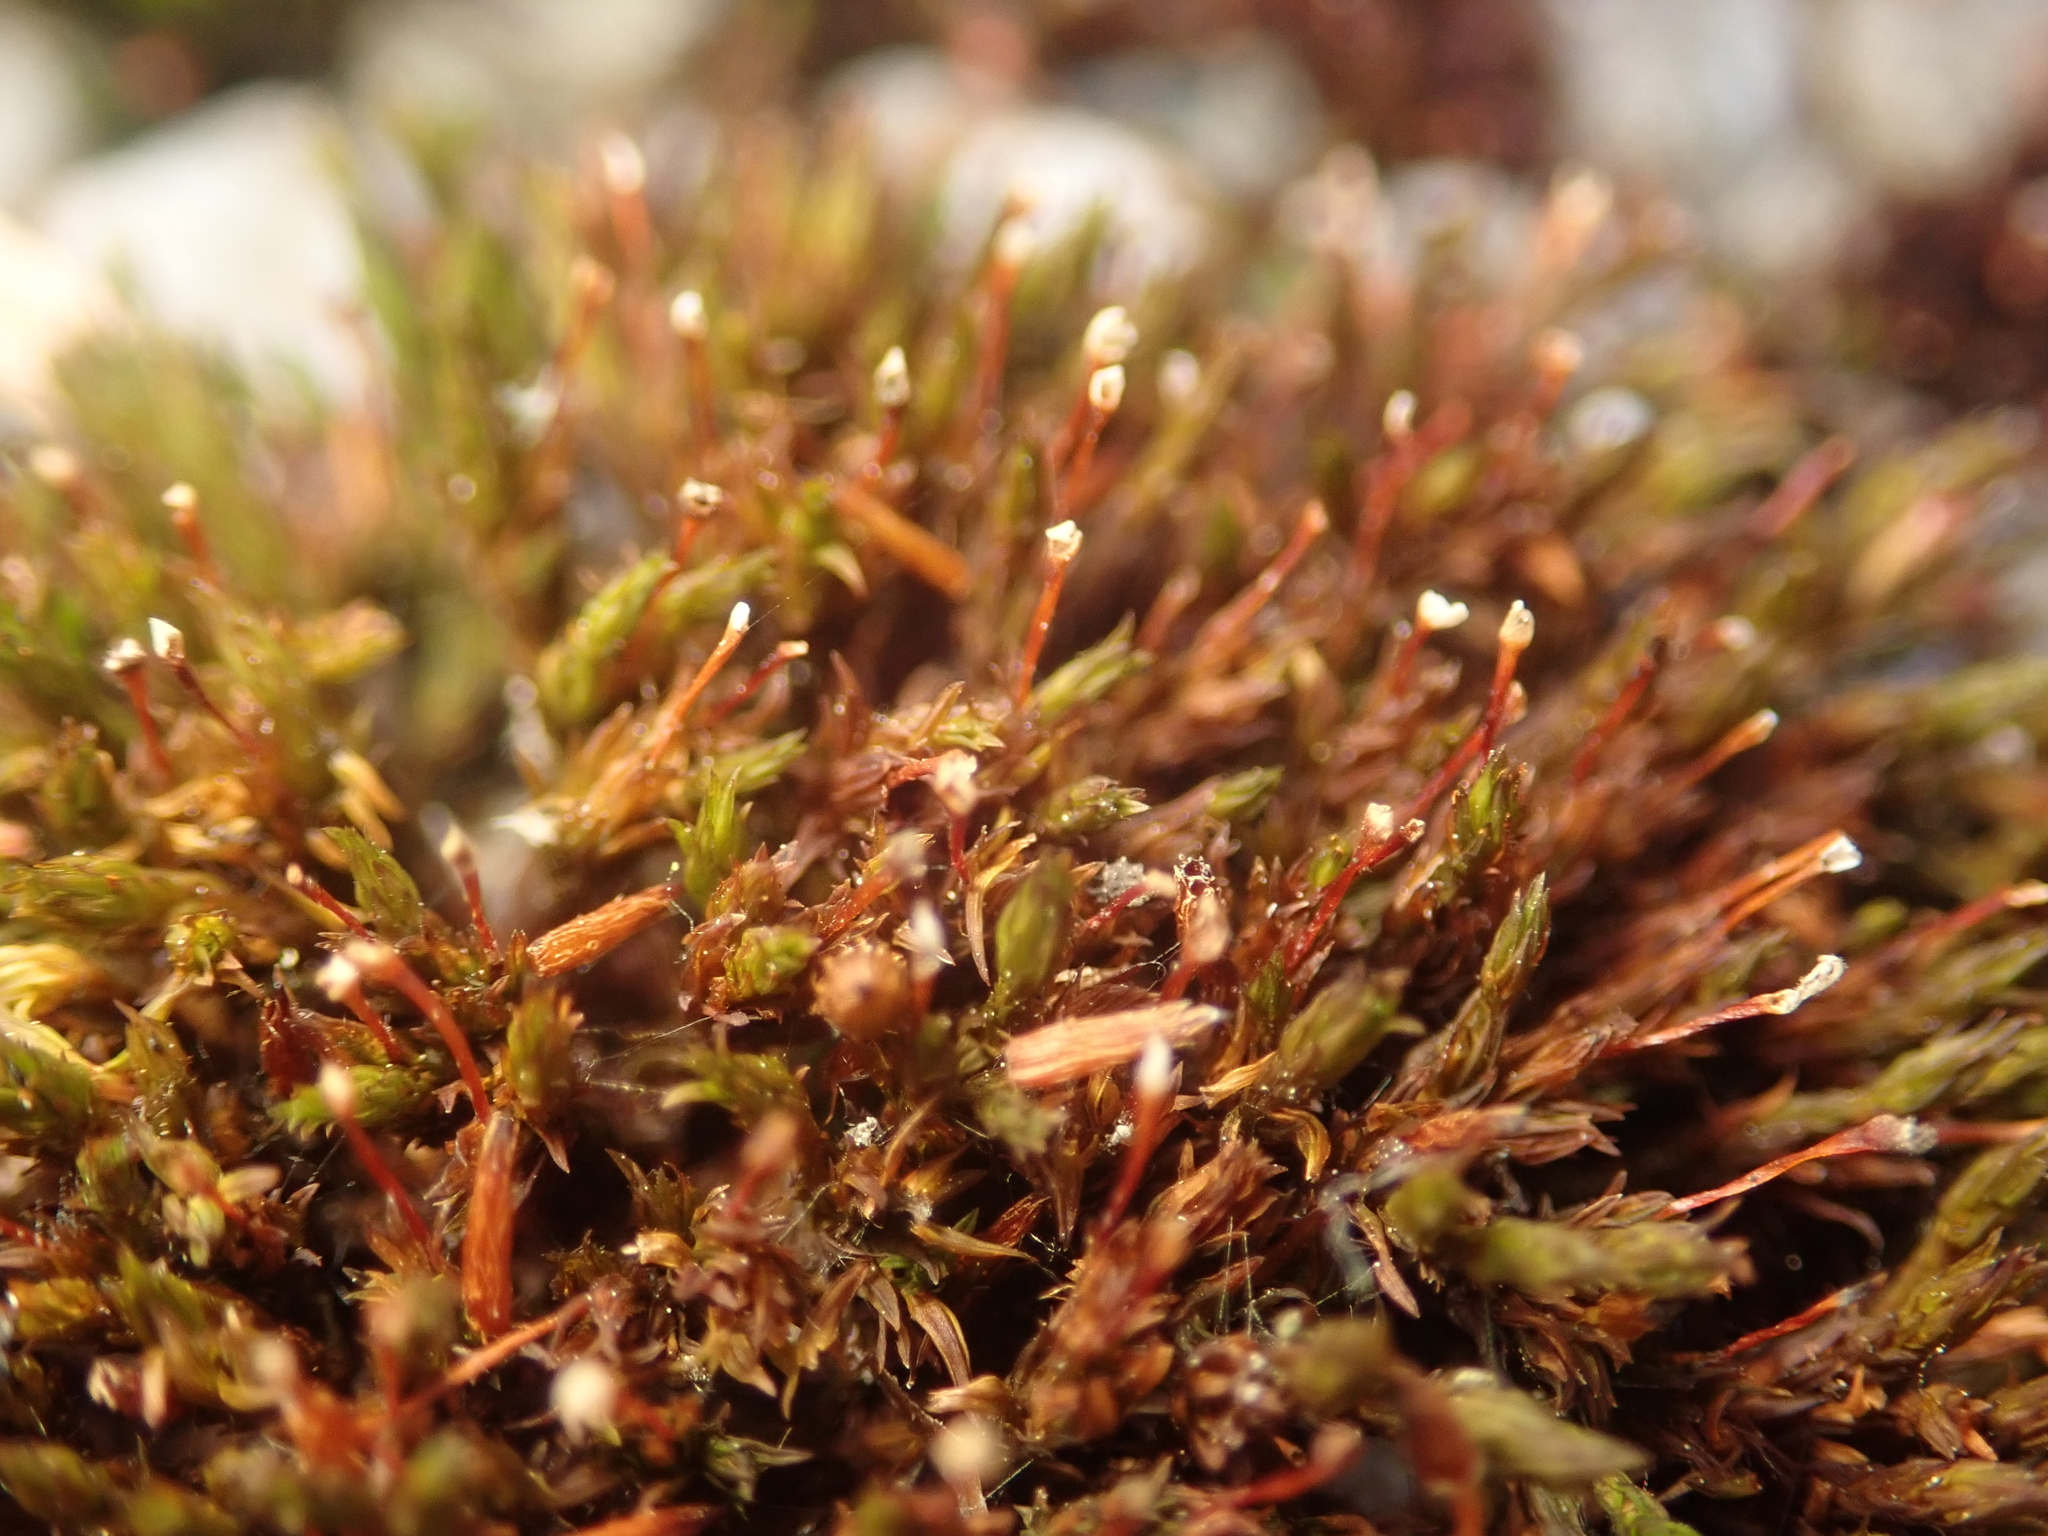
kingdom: Plantae
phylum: Bryophyta
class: Bryopsida
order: Orthotrichales
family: Orthotrichaceae
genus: Orthotrichum
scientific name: Orthotrichum anomalum
